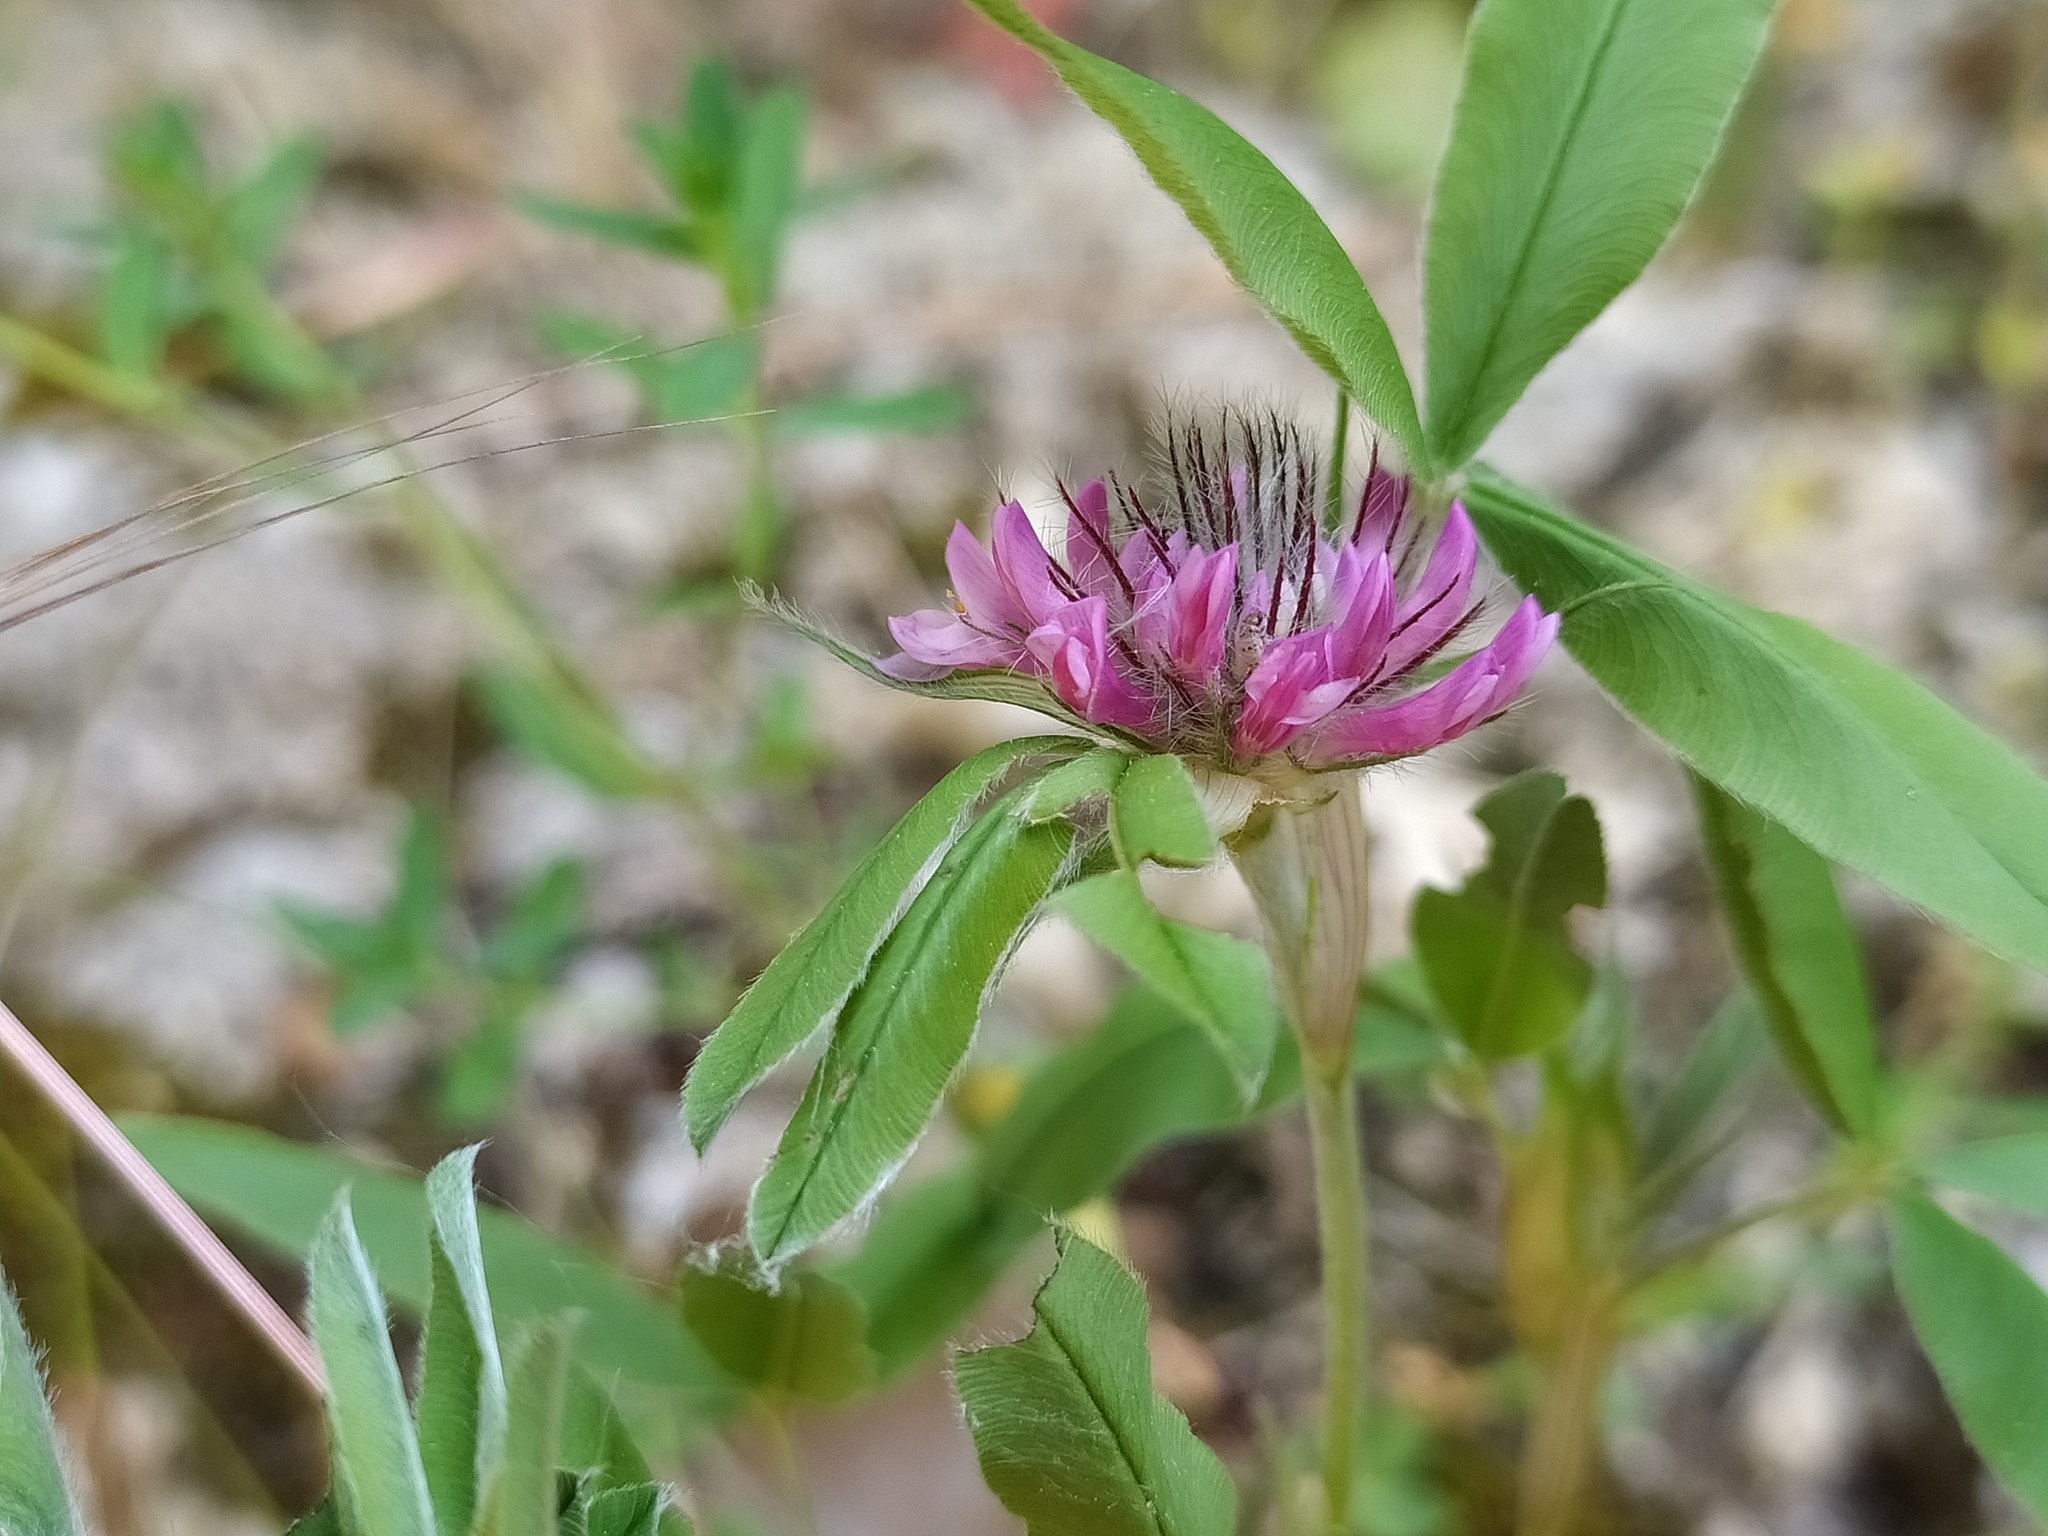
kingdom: Plantae
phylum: Tracheophyta
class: Magnoliopsida
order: Fabales
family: Fabaceae
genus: Trifolium
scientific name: Trifolium alpestre
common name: Owl-head clover
